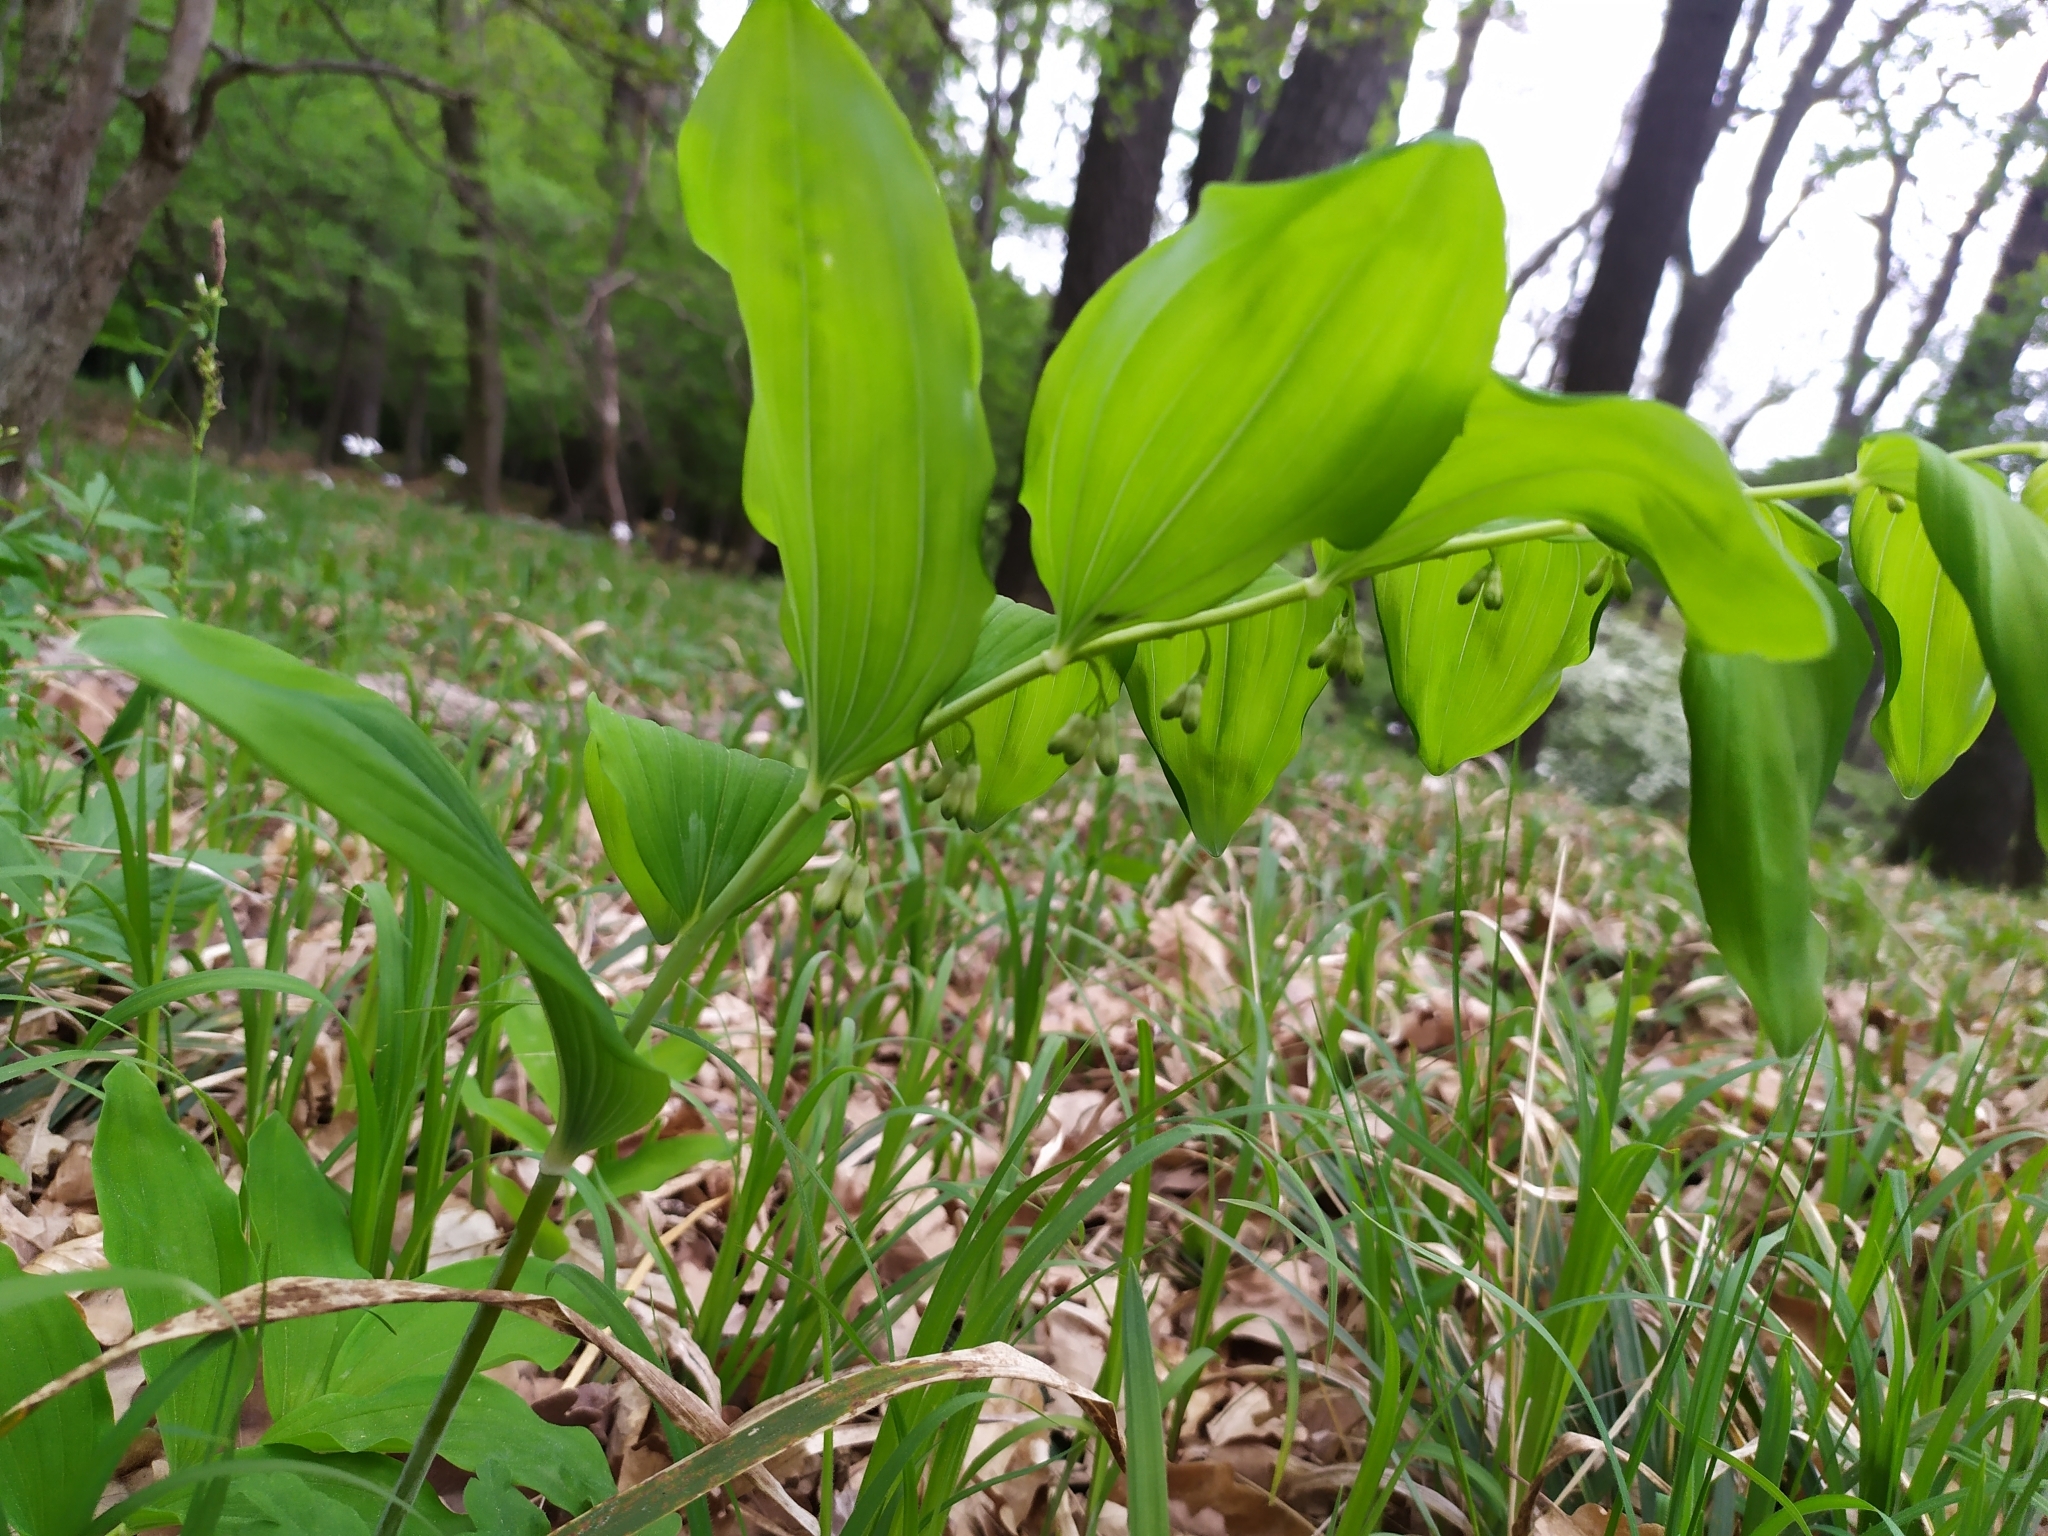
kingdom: Plantae
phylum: Tracheophyta
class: Liliopsida
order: Asparagales
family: Asparagaceae
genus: Polygonatum
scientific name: Polygonatum multiflorum
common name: Solomon's-seal
